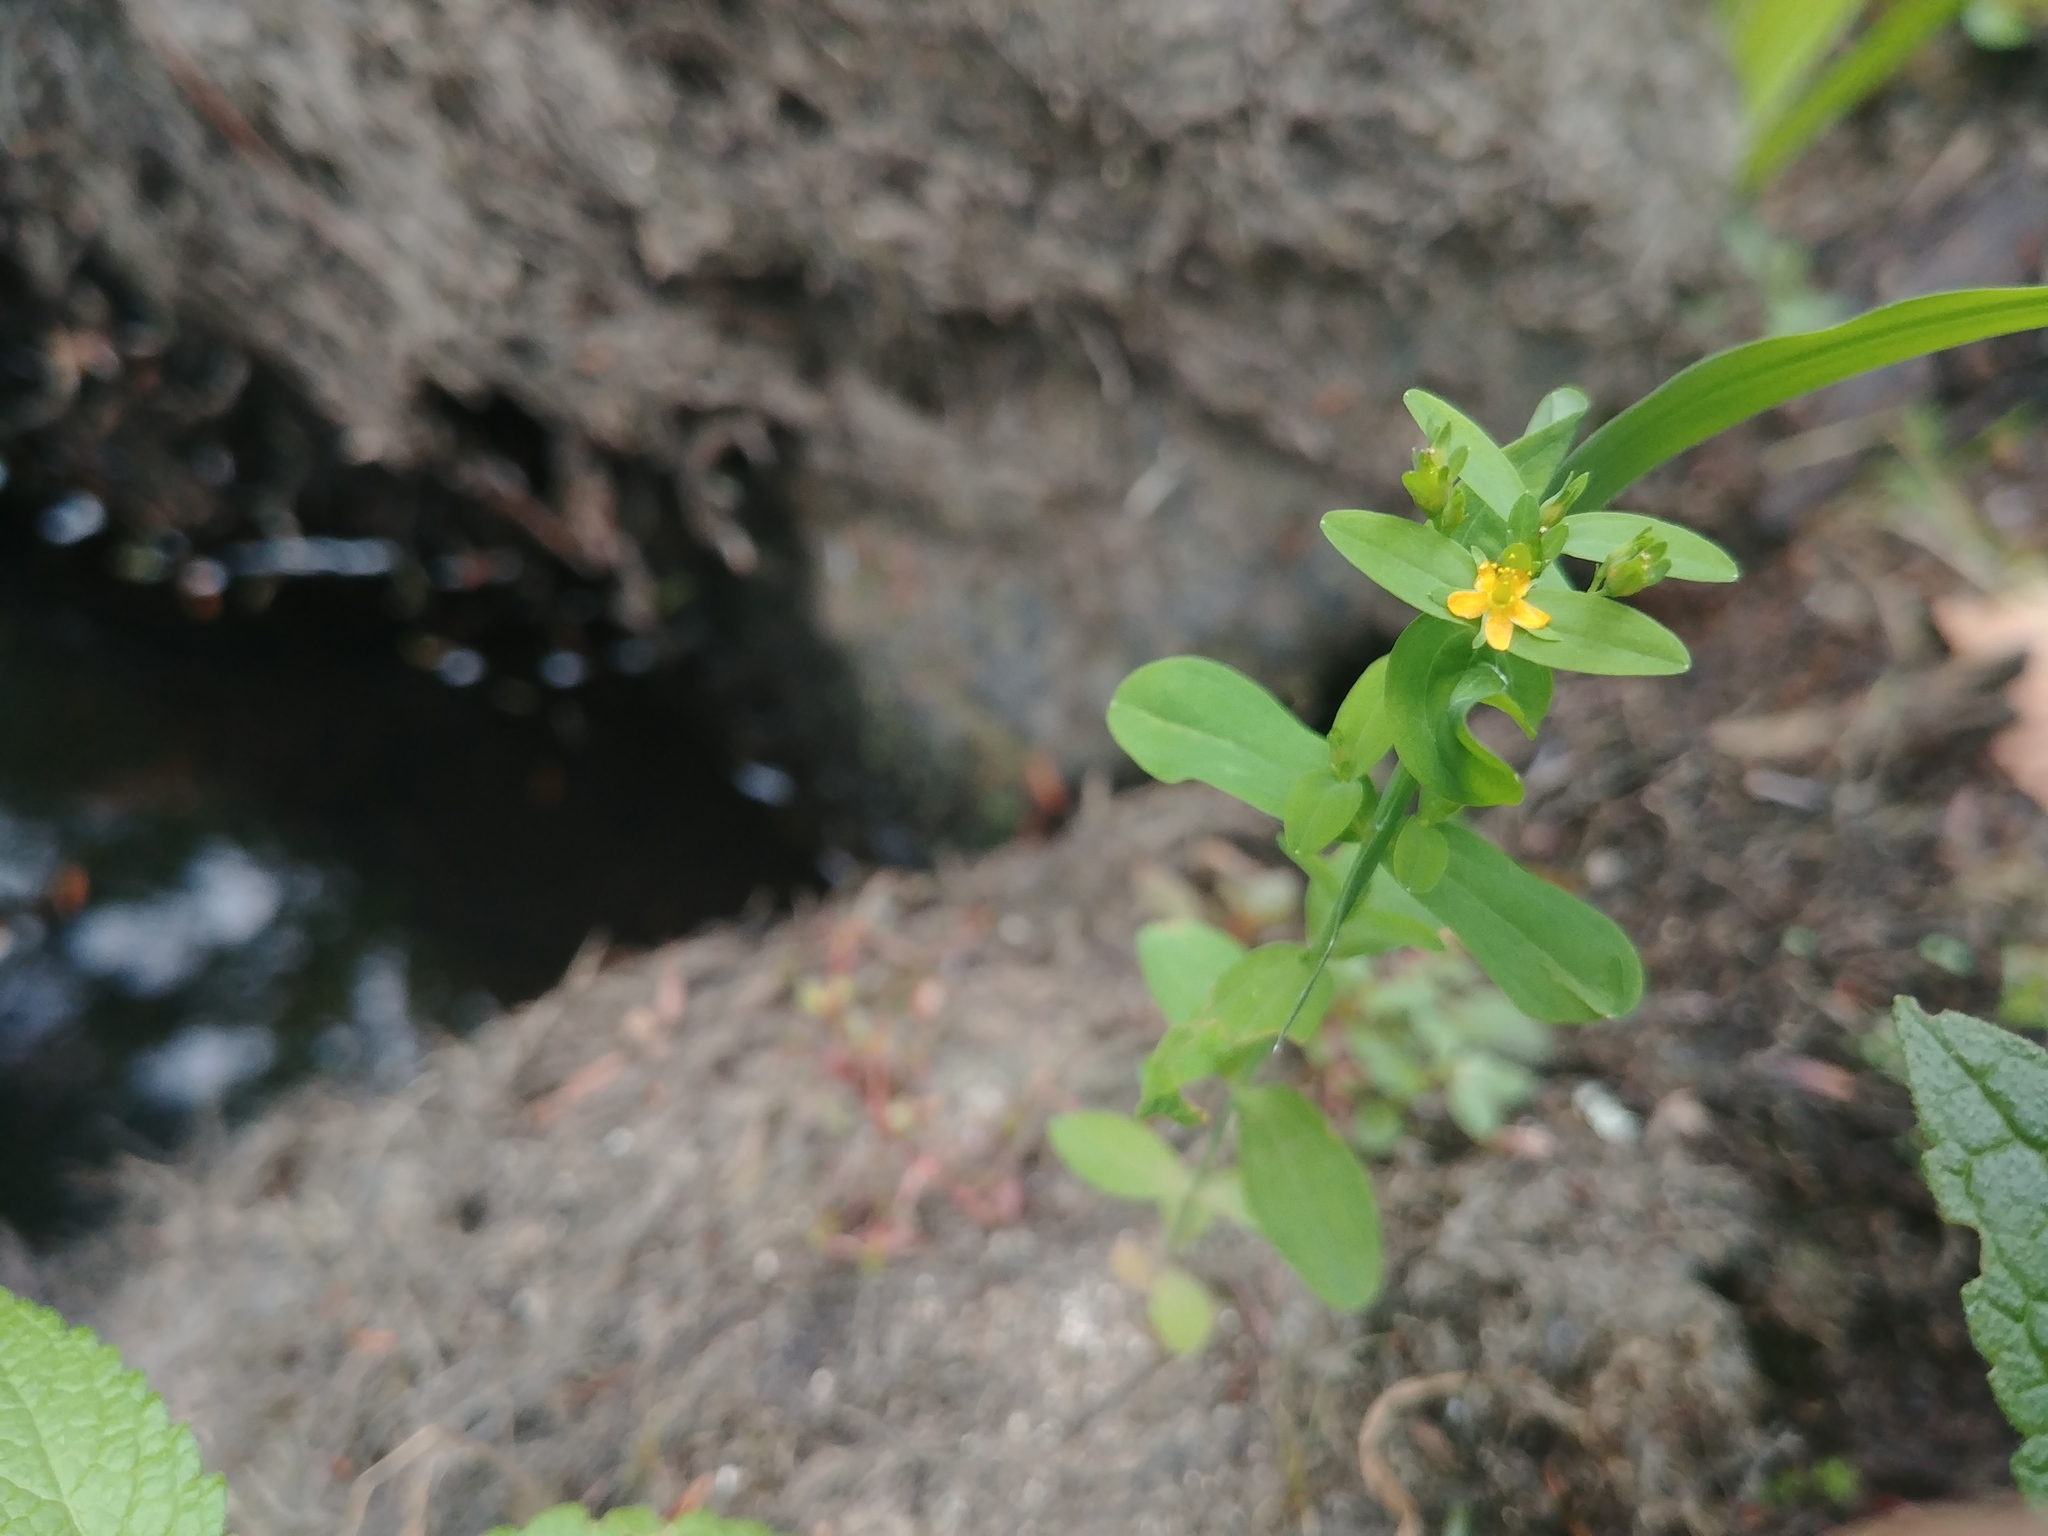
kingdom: Plantae
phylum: Tracheophyta
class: Magnoliopsida
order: Malpighiales
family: Hypericaceae
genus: Hypericum
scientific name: Hypericum mutilum
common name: Dwarf st. john's-wort
